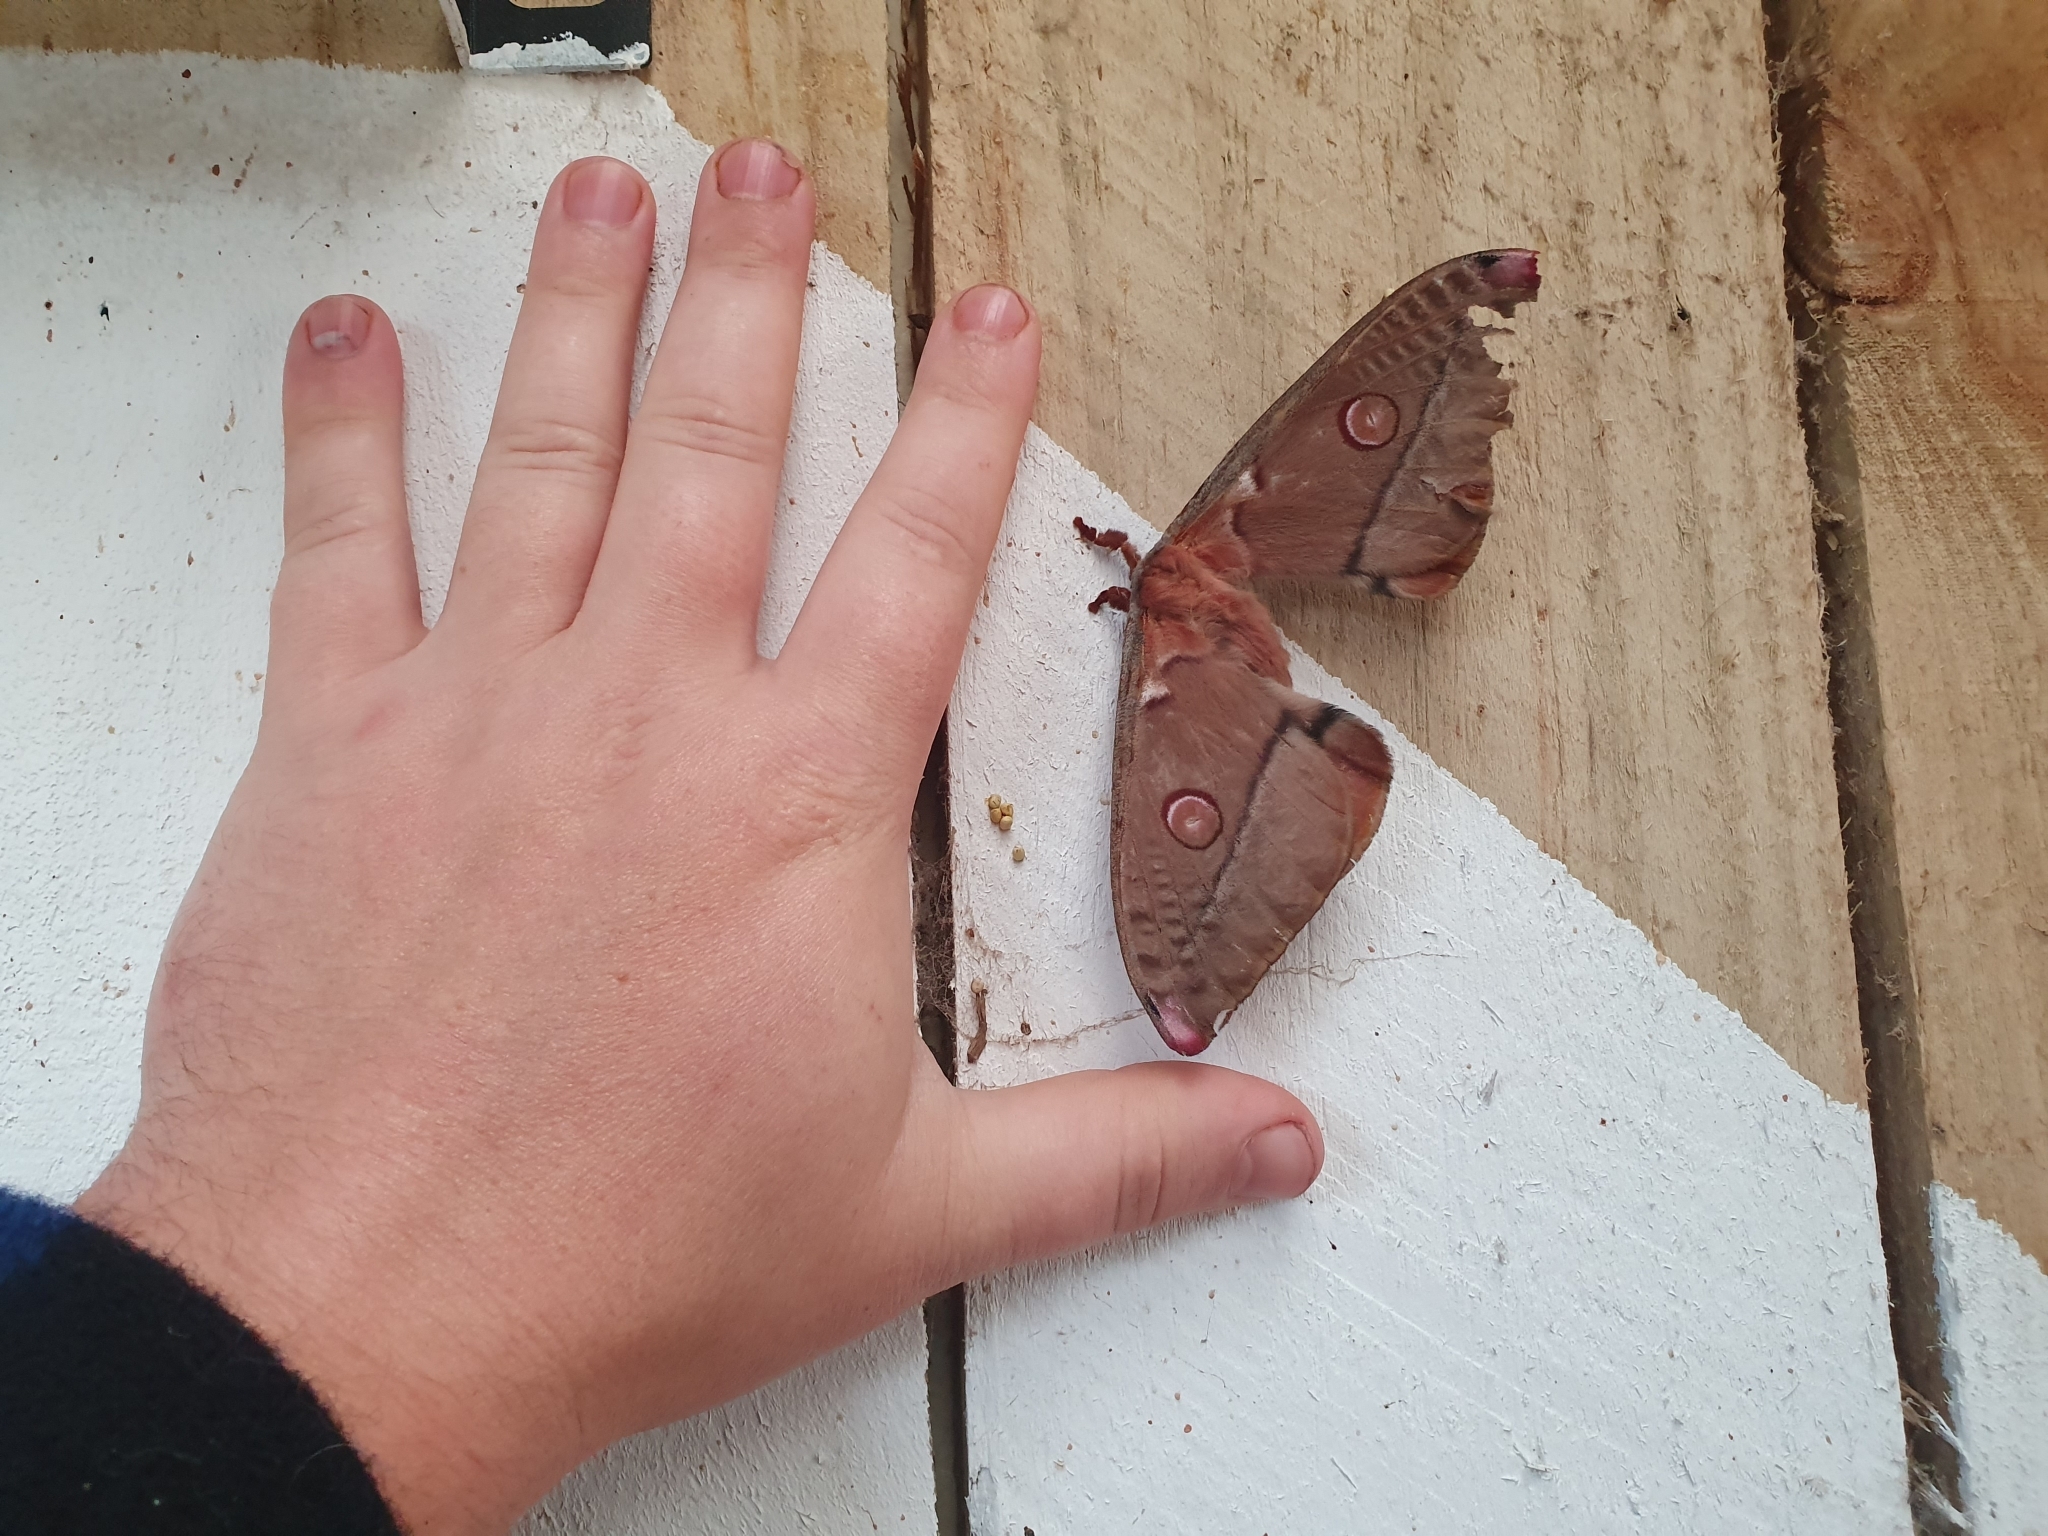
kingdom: Animalia
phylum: Arthropoda
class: Insecta
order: Lepidoptera
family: Saturniidae
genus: Opodiphthera
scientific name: Opodiphthera
